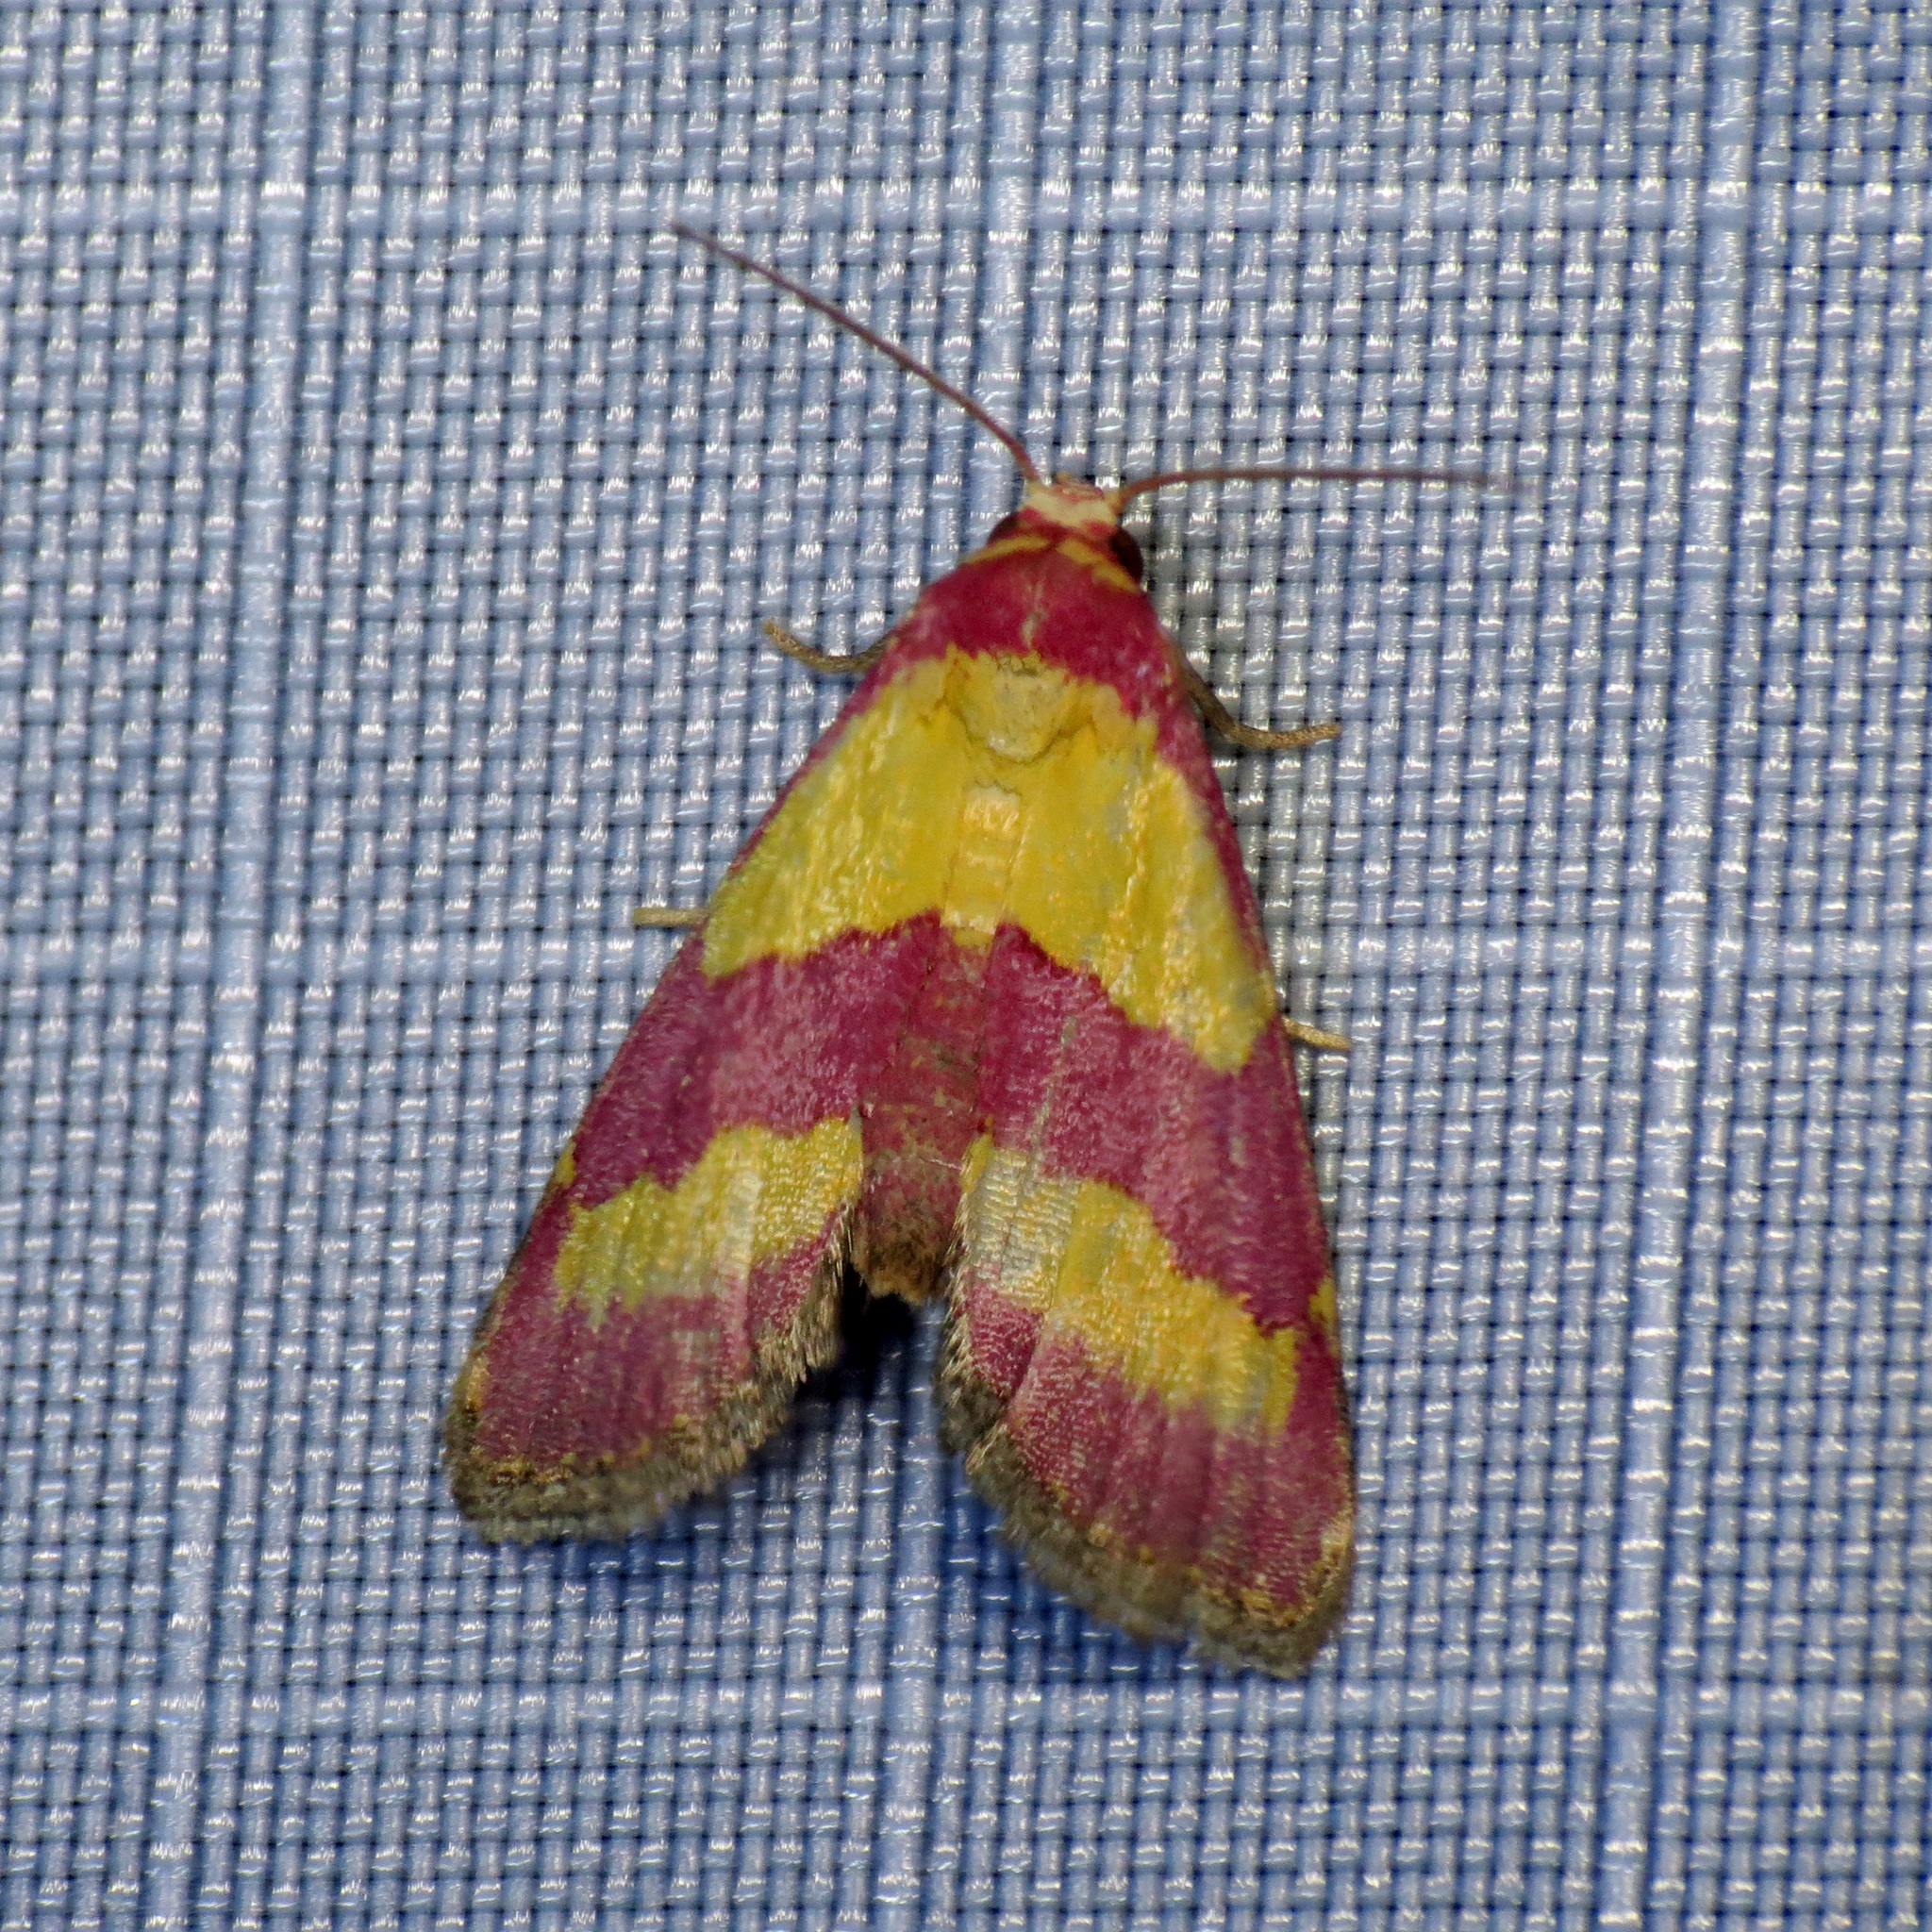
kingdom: Animalia
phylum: Arthropoda
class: Insecta
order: Lepidoptera
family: Noctuidae
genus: Phoenicophanta
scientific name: Phoenicophanta bicolor
